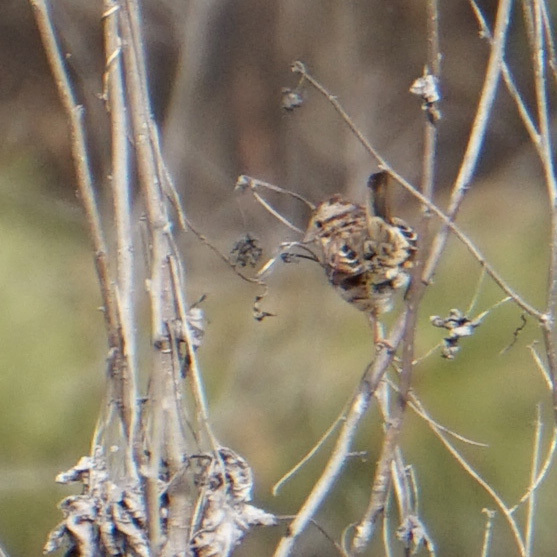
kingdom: Animalia
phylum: Chordata
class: Aves
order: Passeriformes
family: Passerellidae
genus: Melospiza
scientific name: Melospiza melodia
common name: Song sparrow
